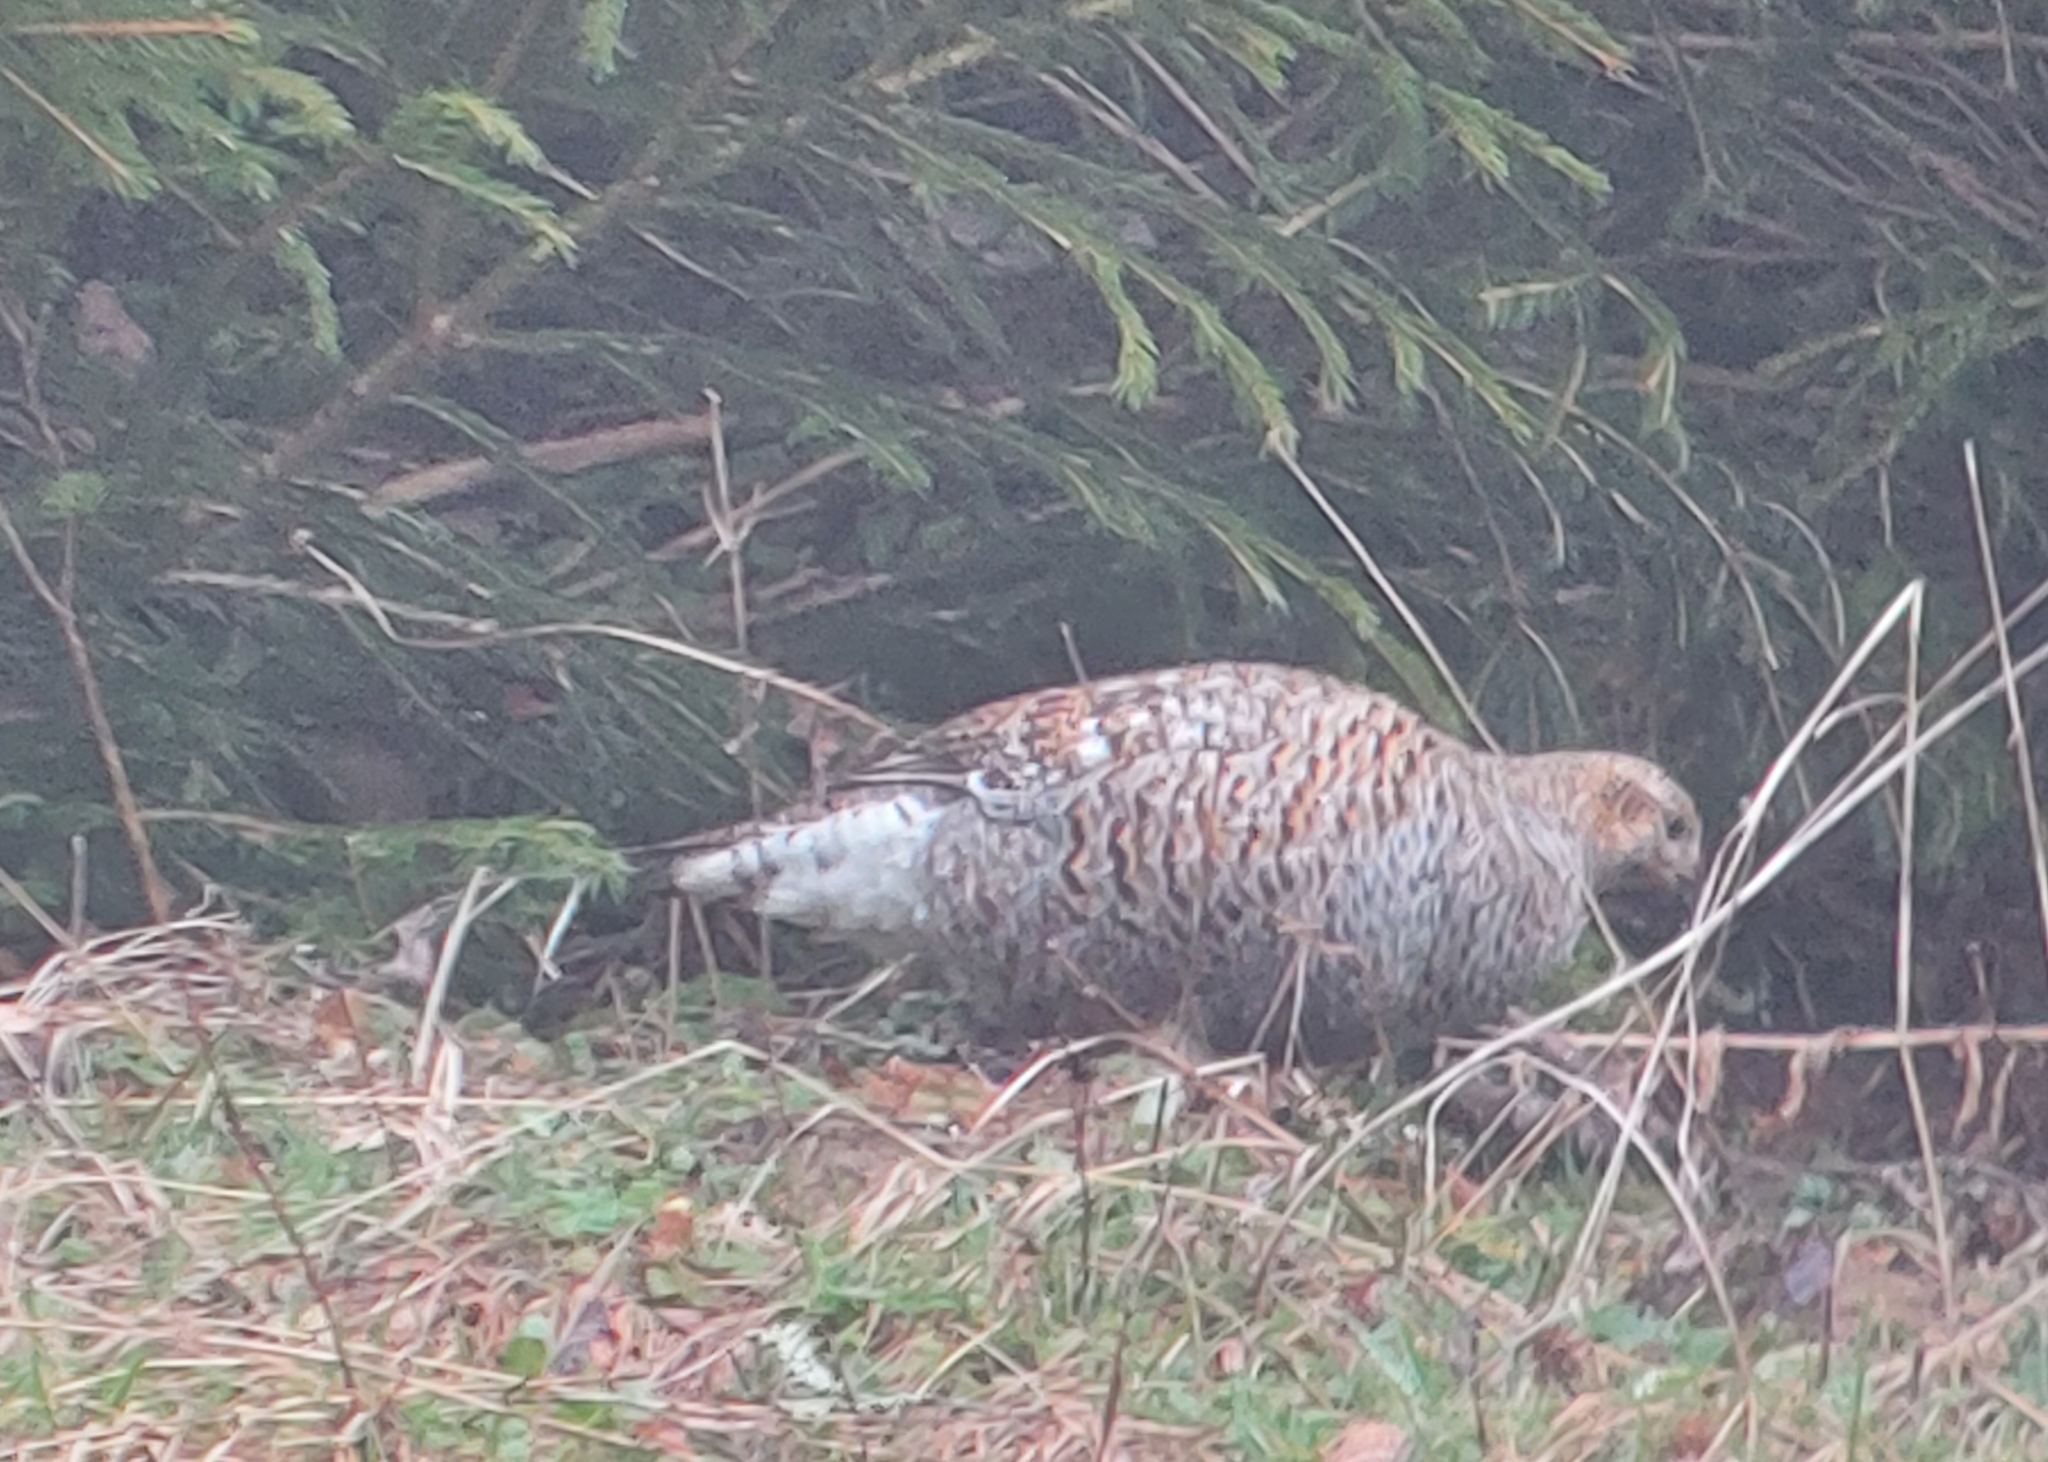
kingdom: Animalia
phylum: Chordata
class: Aves
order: Galliformes
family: Phasianidae
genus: Lyrurus
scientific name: Lyrurus tetrix
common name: Black grouse
